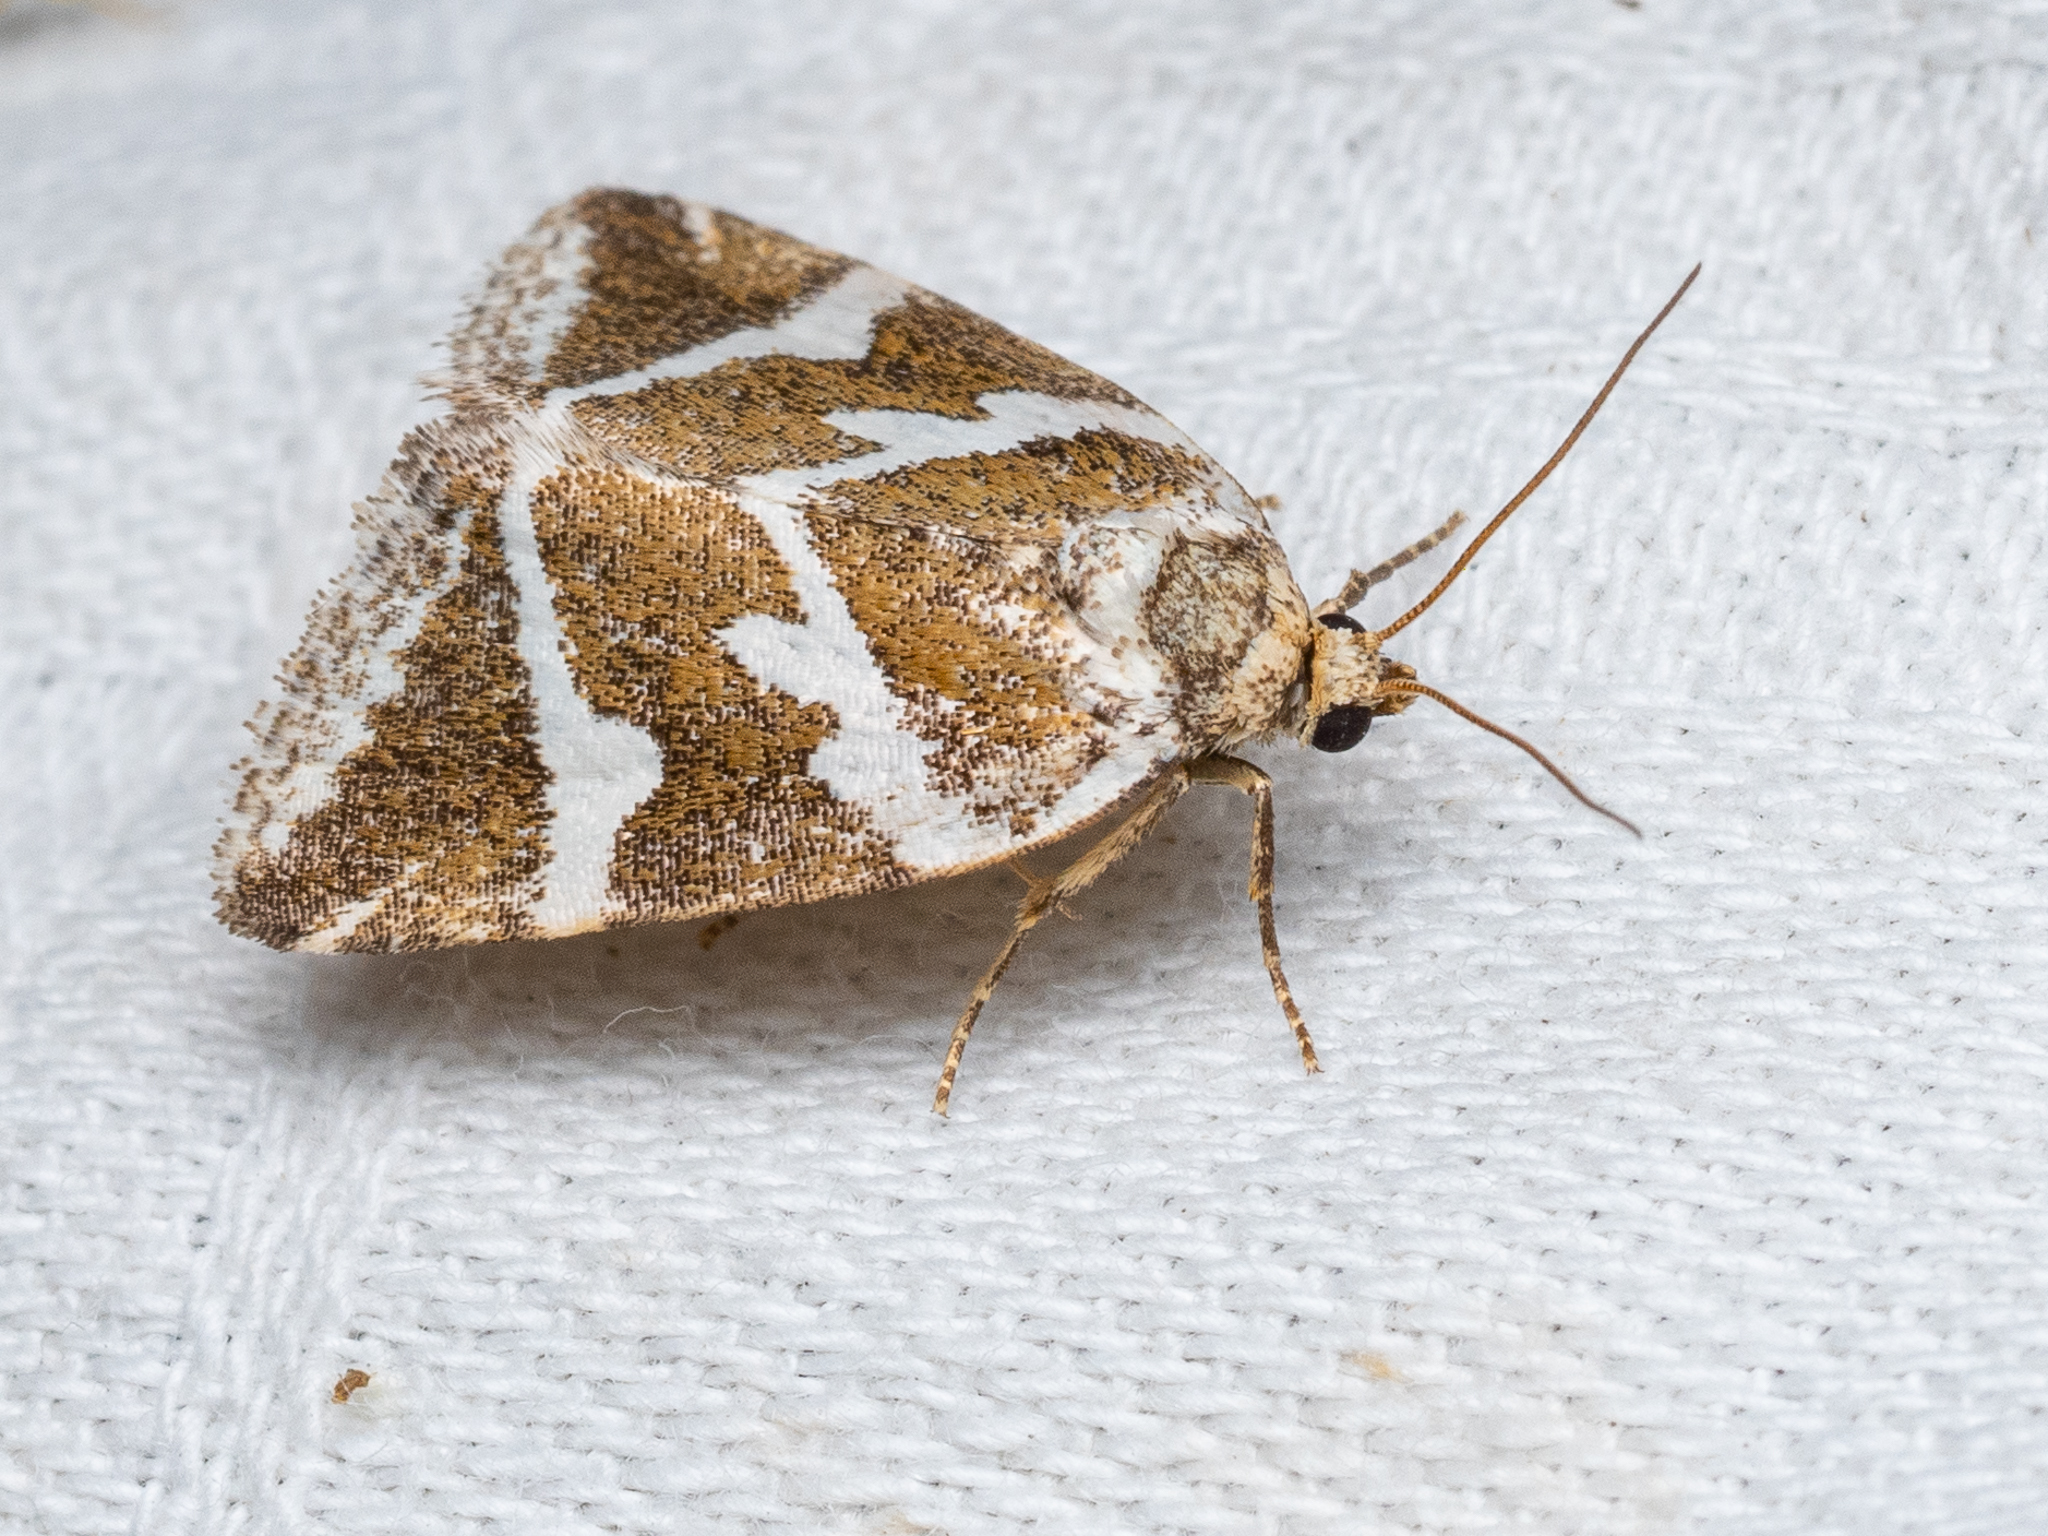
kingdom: Animalia
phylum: Arthropoda
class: Insecta
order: Lepidoptera
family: Noctuidae
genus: Deltote
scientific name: Deltote bankiana
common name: Silver barred
